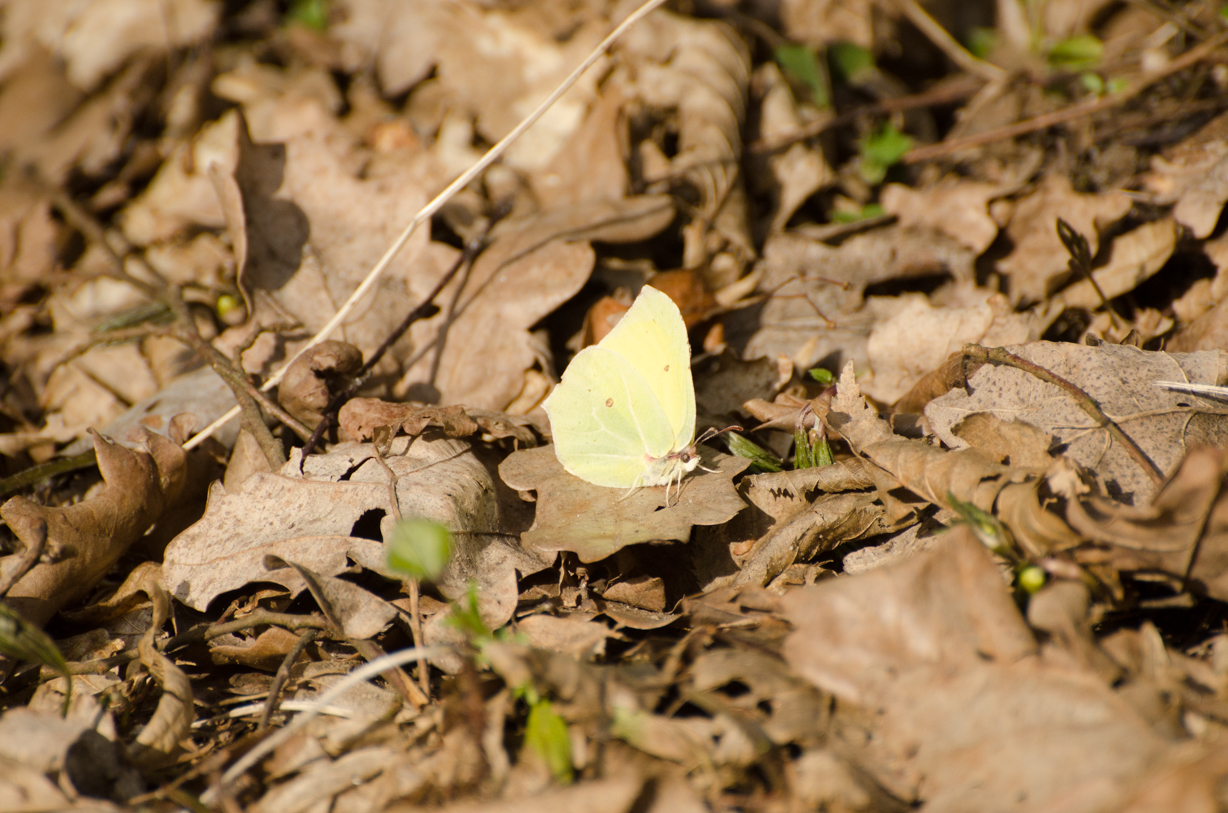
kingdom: Animalia
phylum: Arthropoda
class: Insecta
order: Lepidoptera
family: Pieridae
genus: Gonepteryx
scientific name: Gonepteryx rhamni
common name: Brimstone
